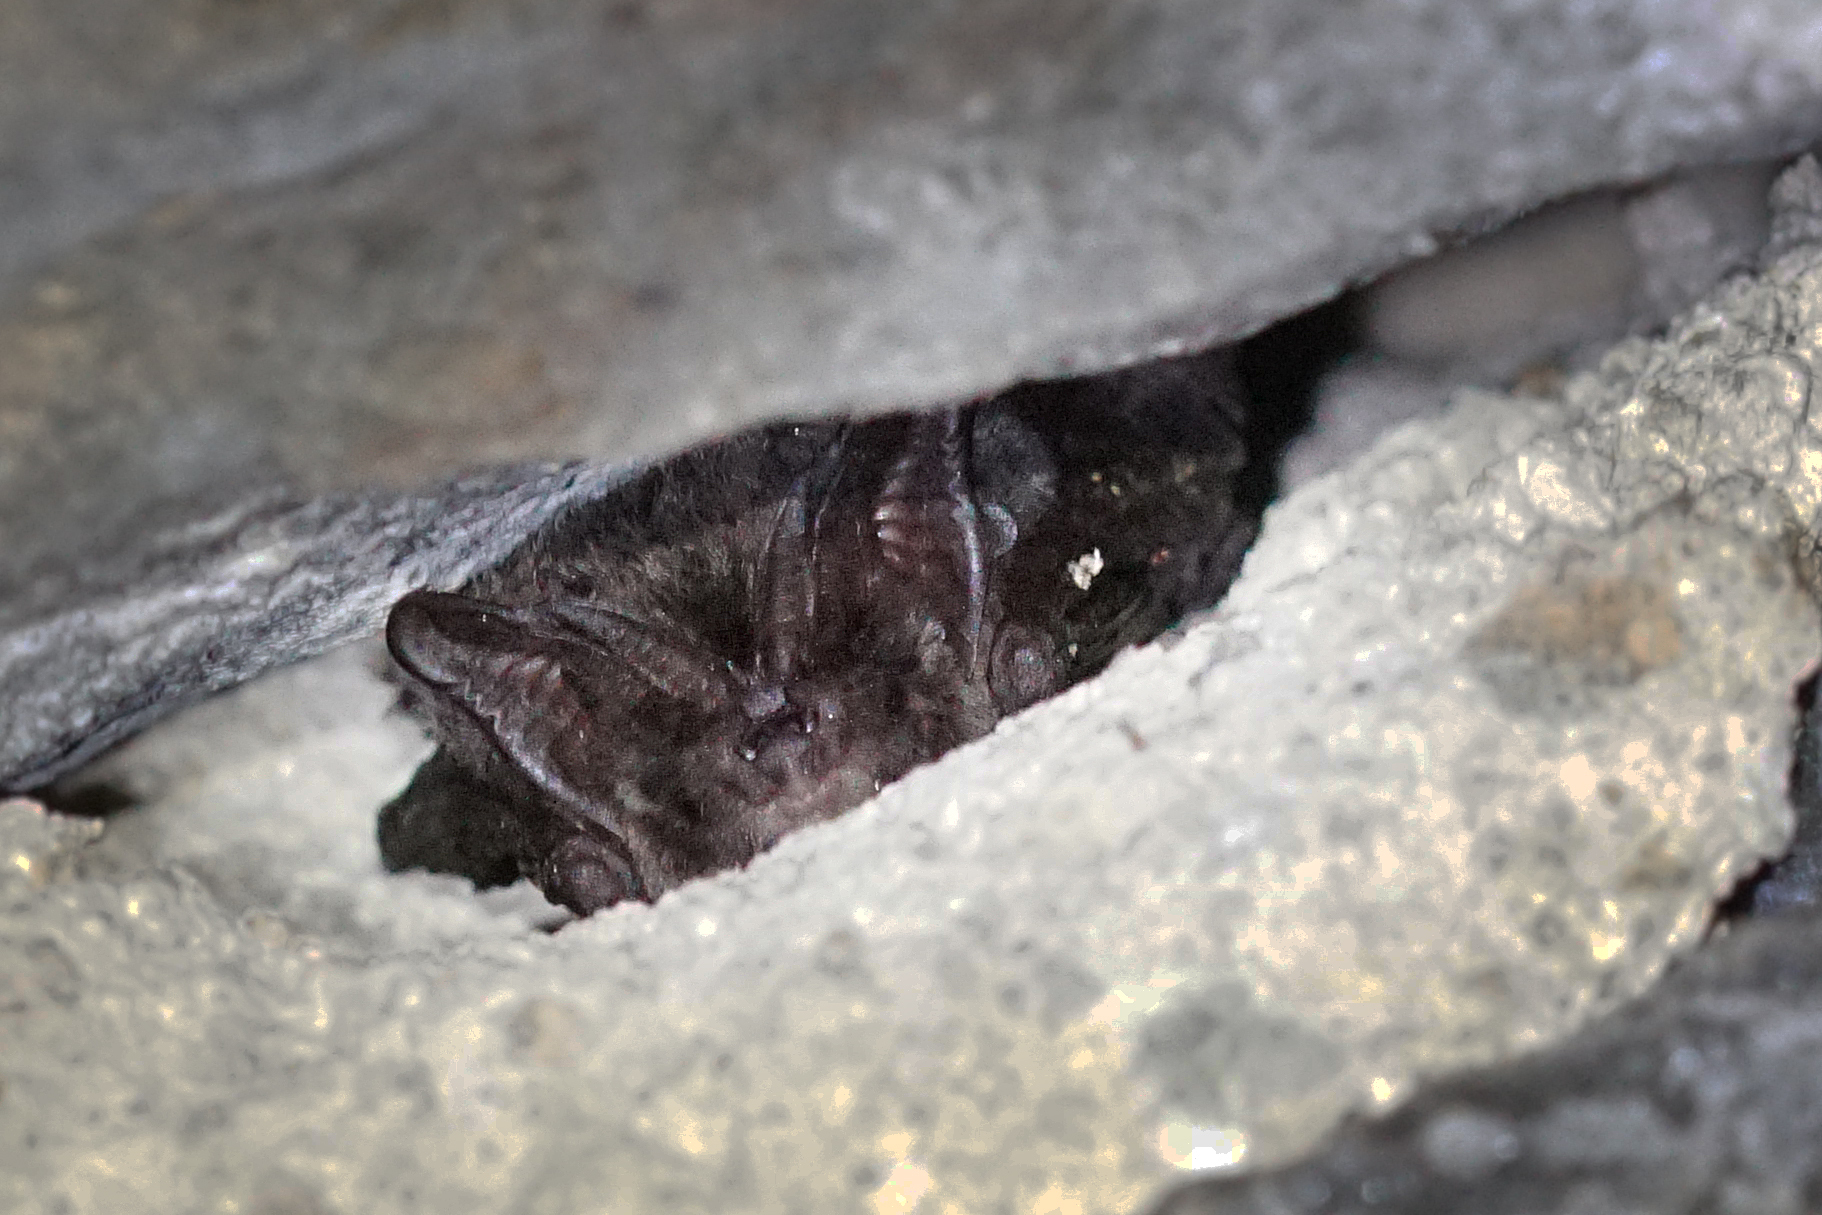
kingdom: Animalia
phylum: Chordata
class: Mammalia
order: Chiroptera
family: Vespertilionidae
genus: Barbastella
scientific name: Barbastella barbastellus
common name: Western barbastelle
